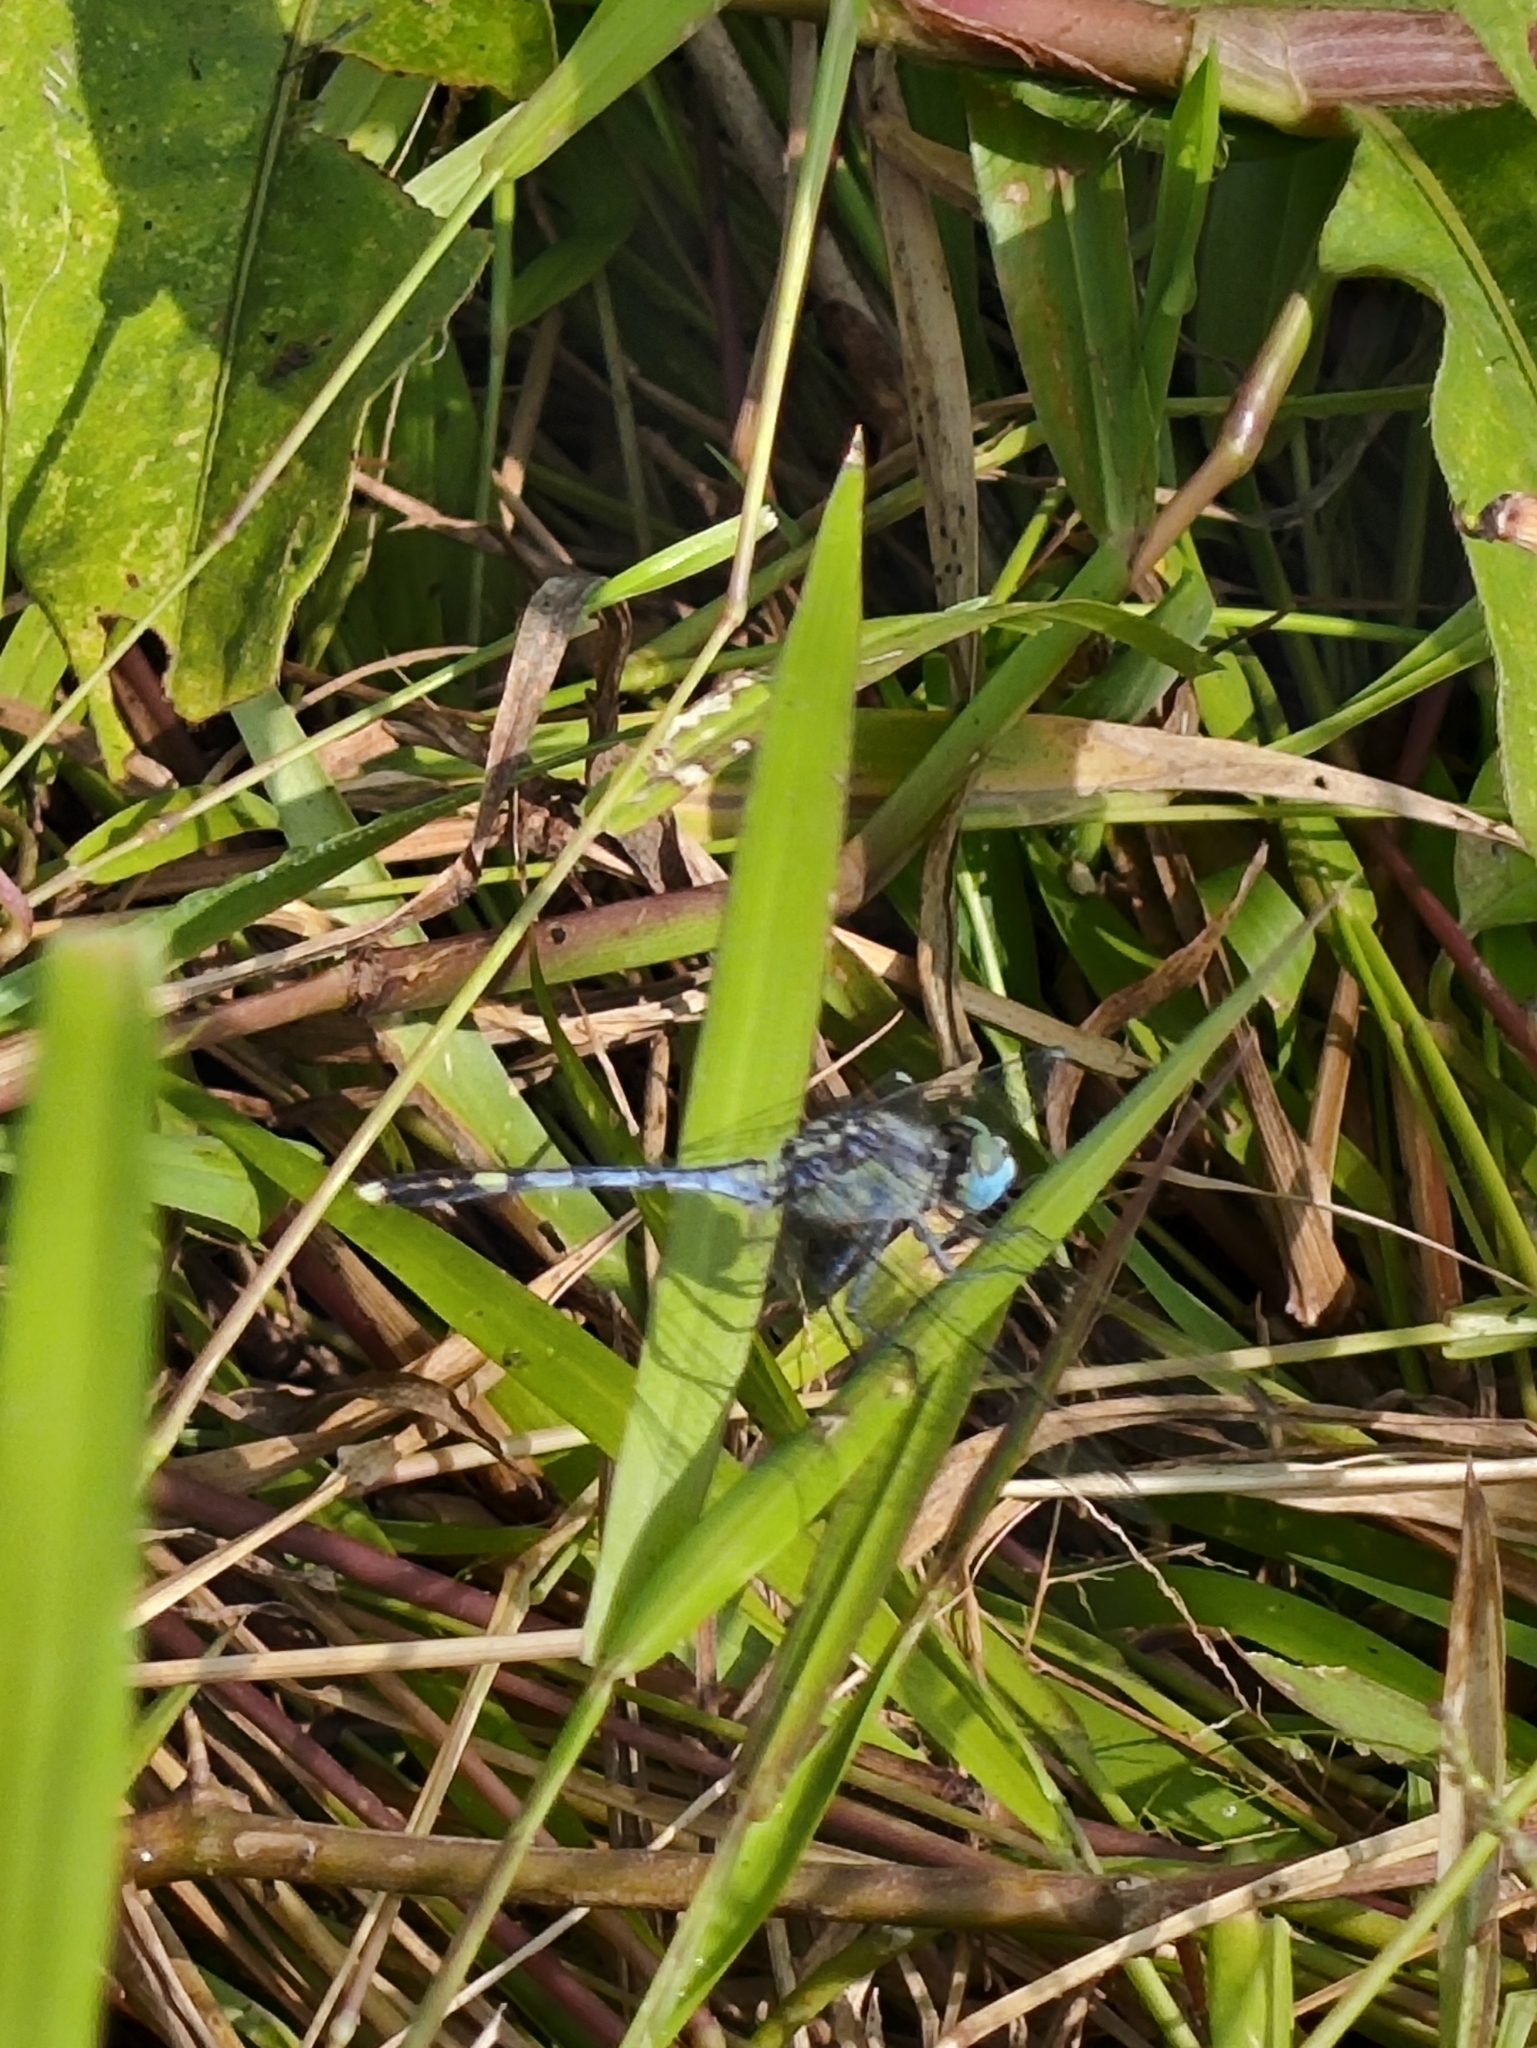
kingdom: Animalia
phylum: Arthropoda
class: Insecta
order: Odonata
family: Libellulidae
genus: Diplacodes
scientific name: Diplacodes trivialis
